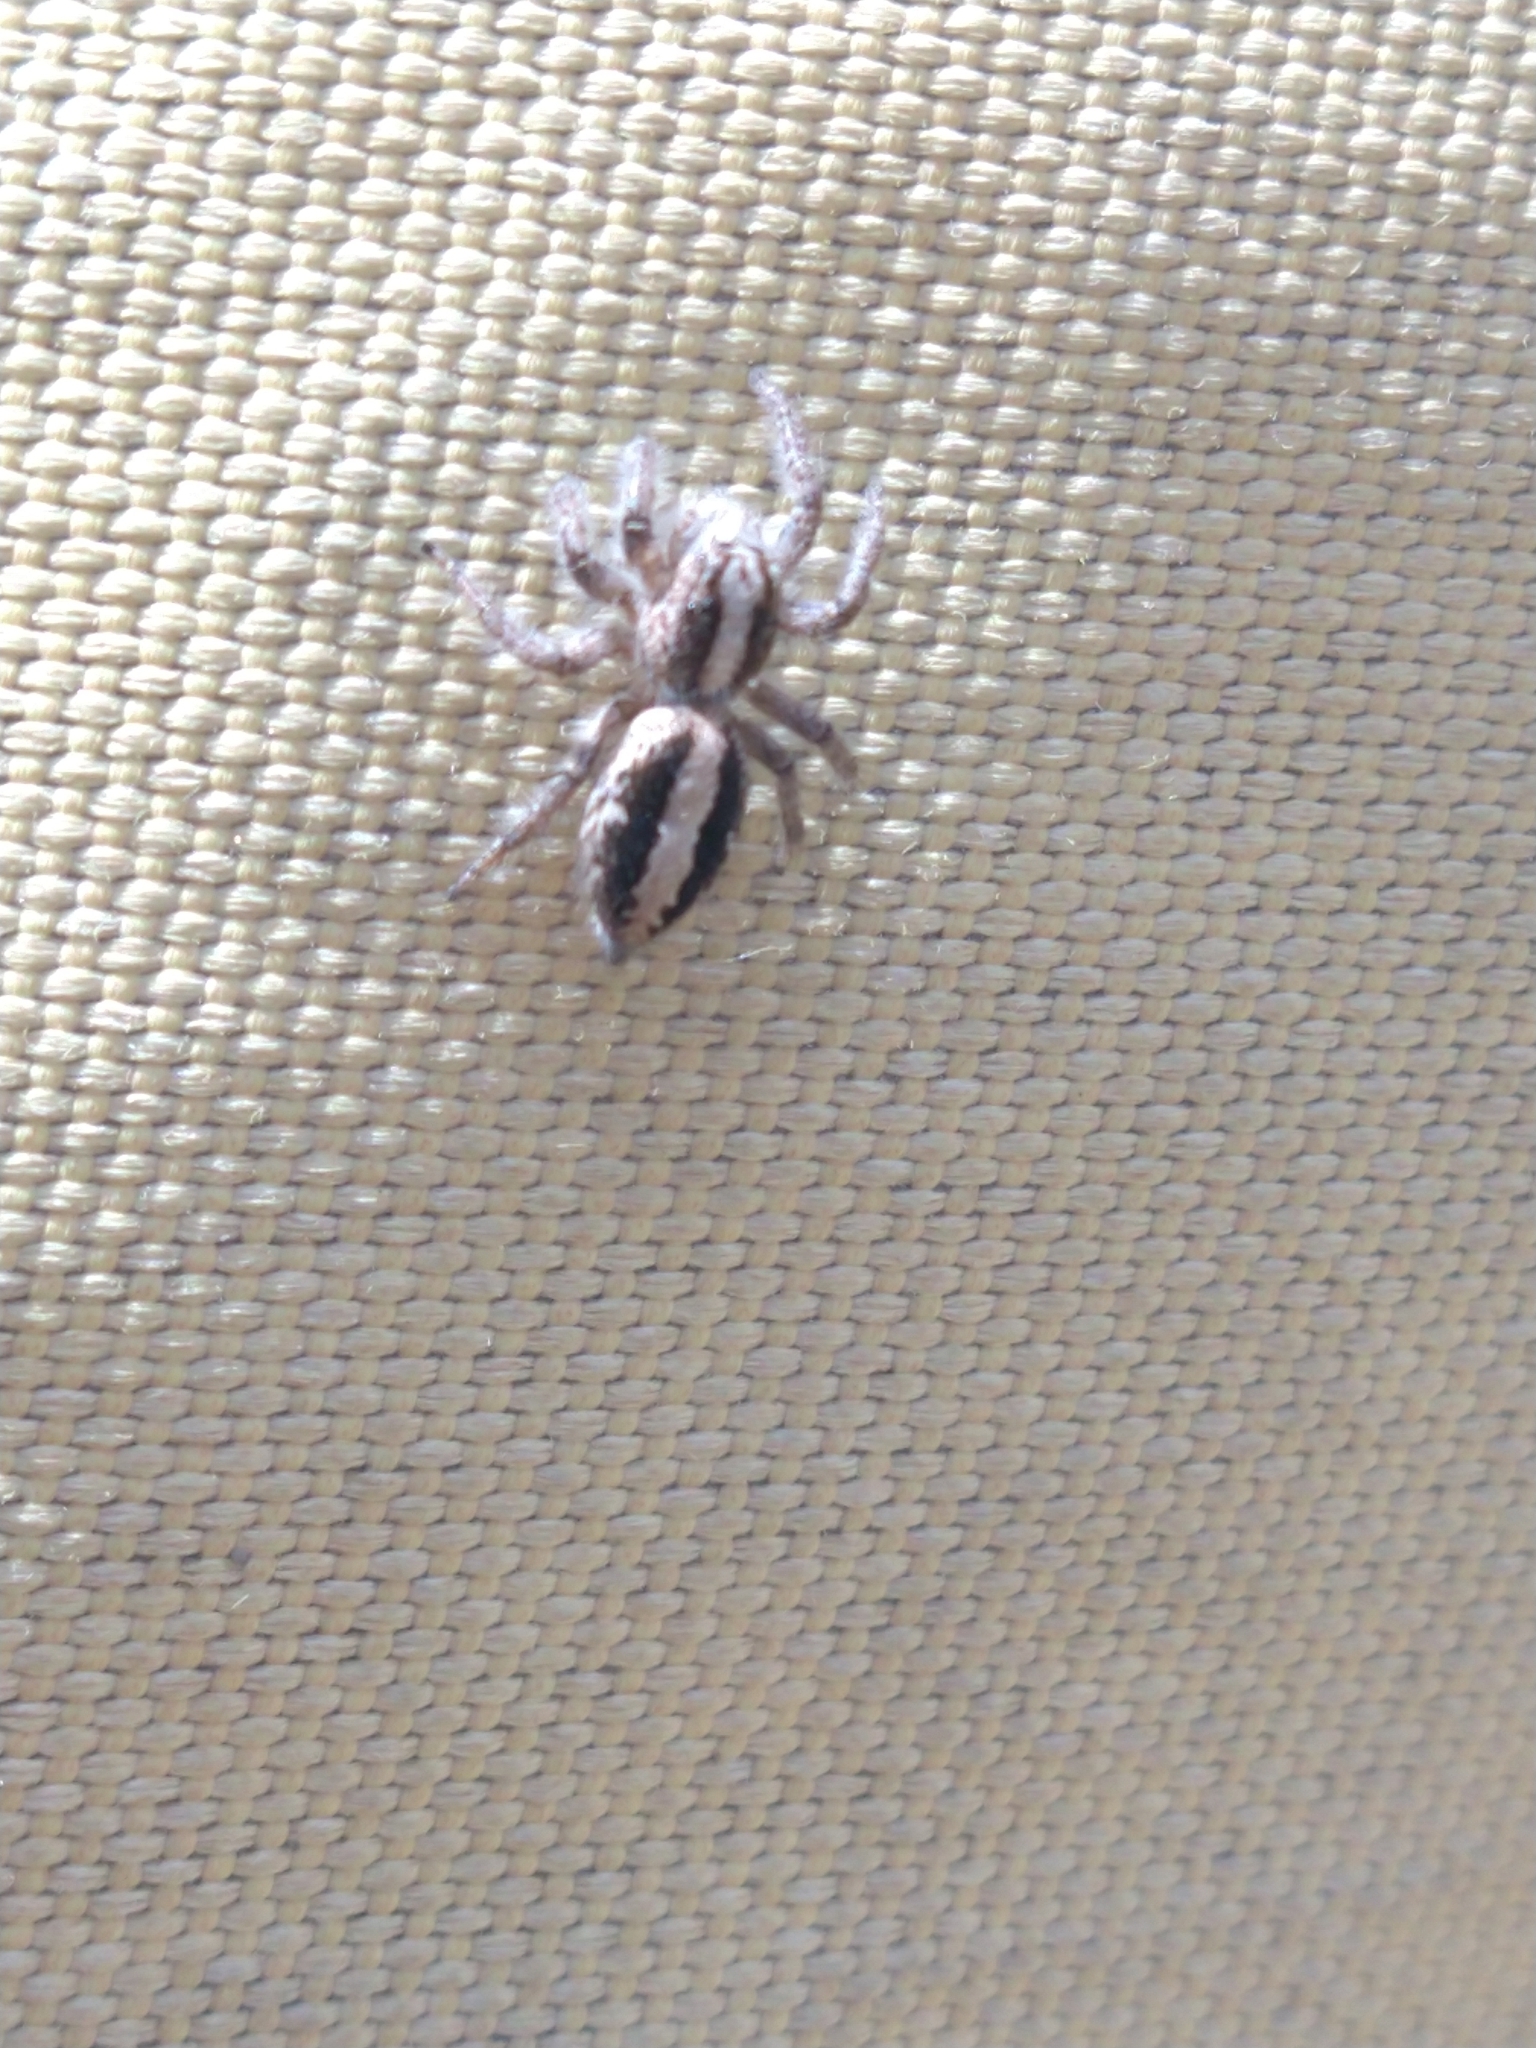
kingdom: Animalia
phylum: Arthropoda
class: Arachnida
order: Araneae
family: Salticidae
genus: Megafreya
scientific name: Megafreya sutrix
